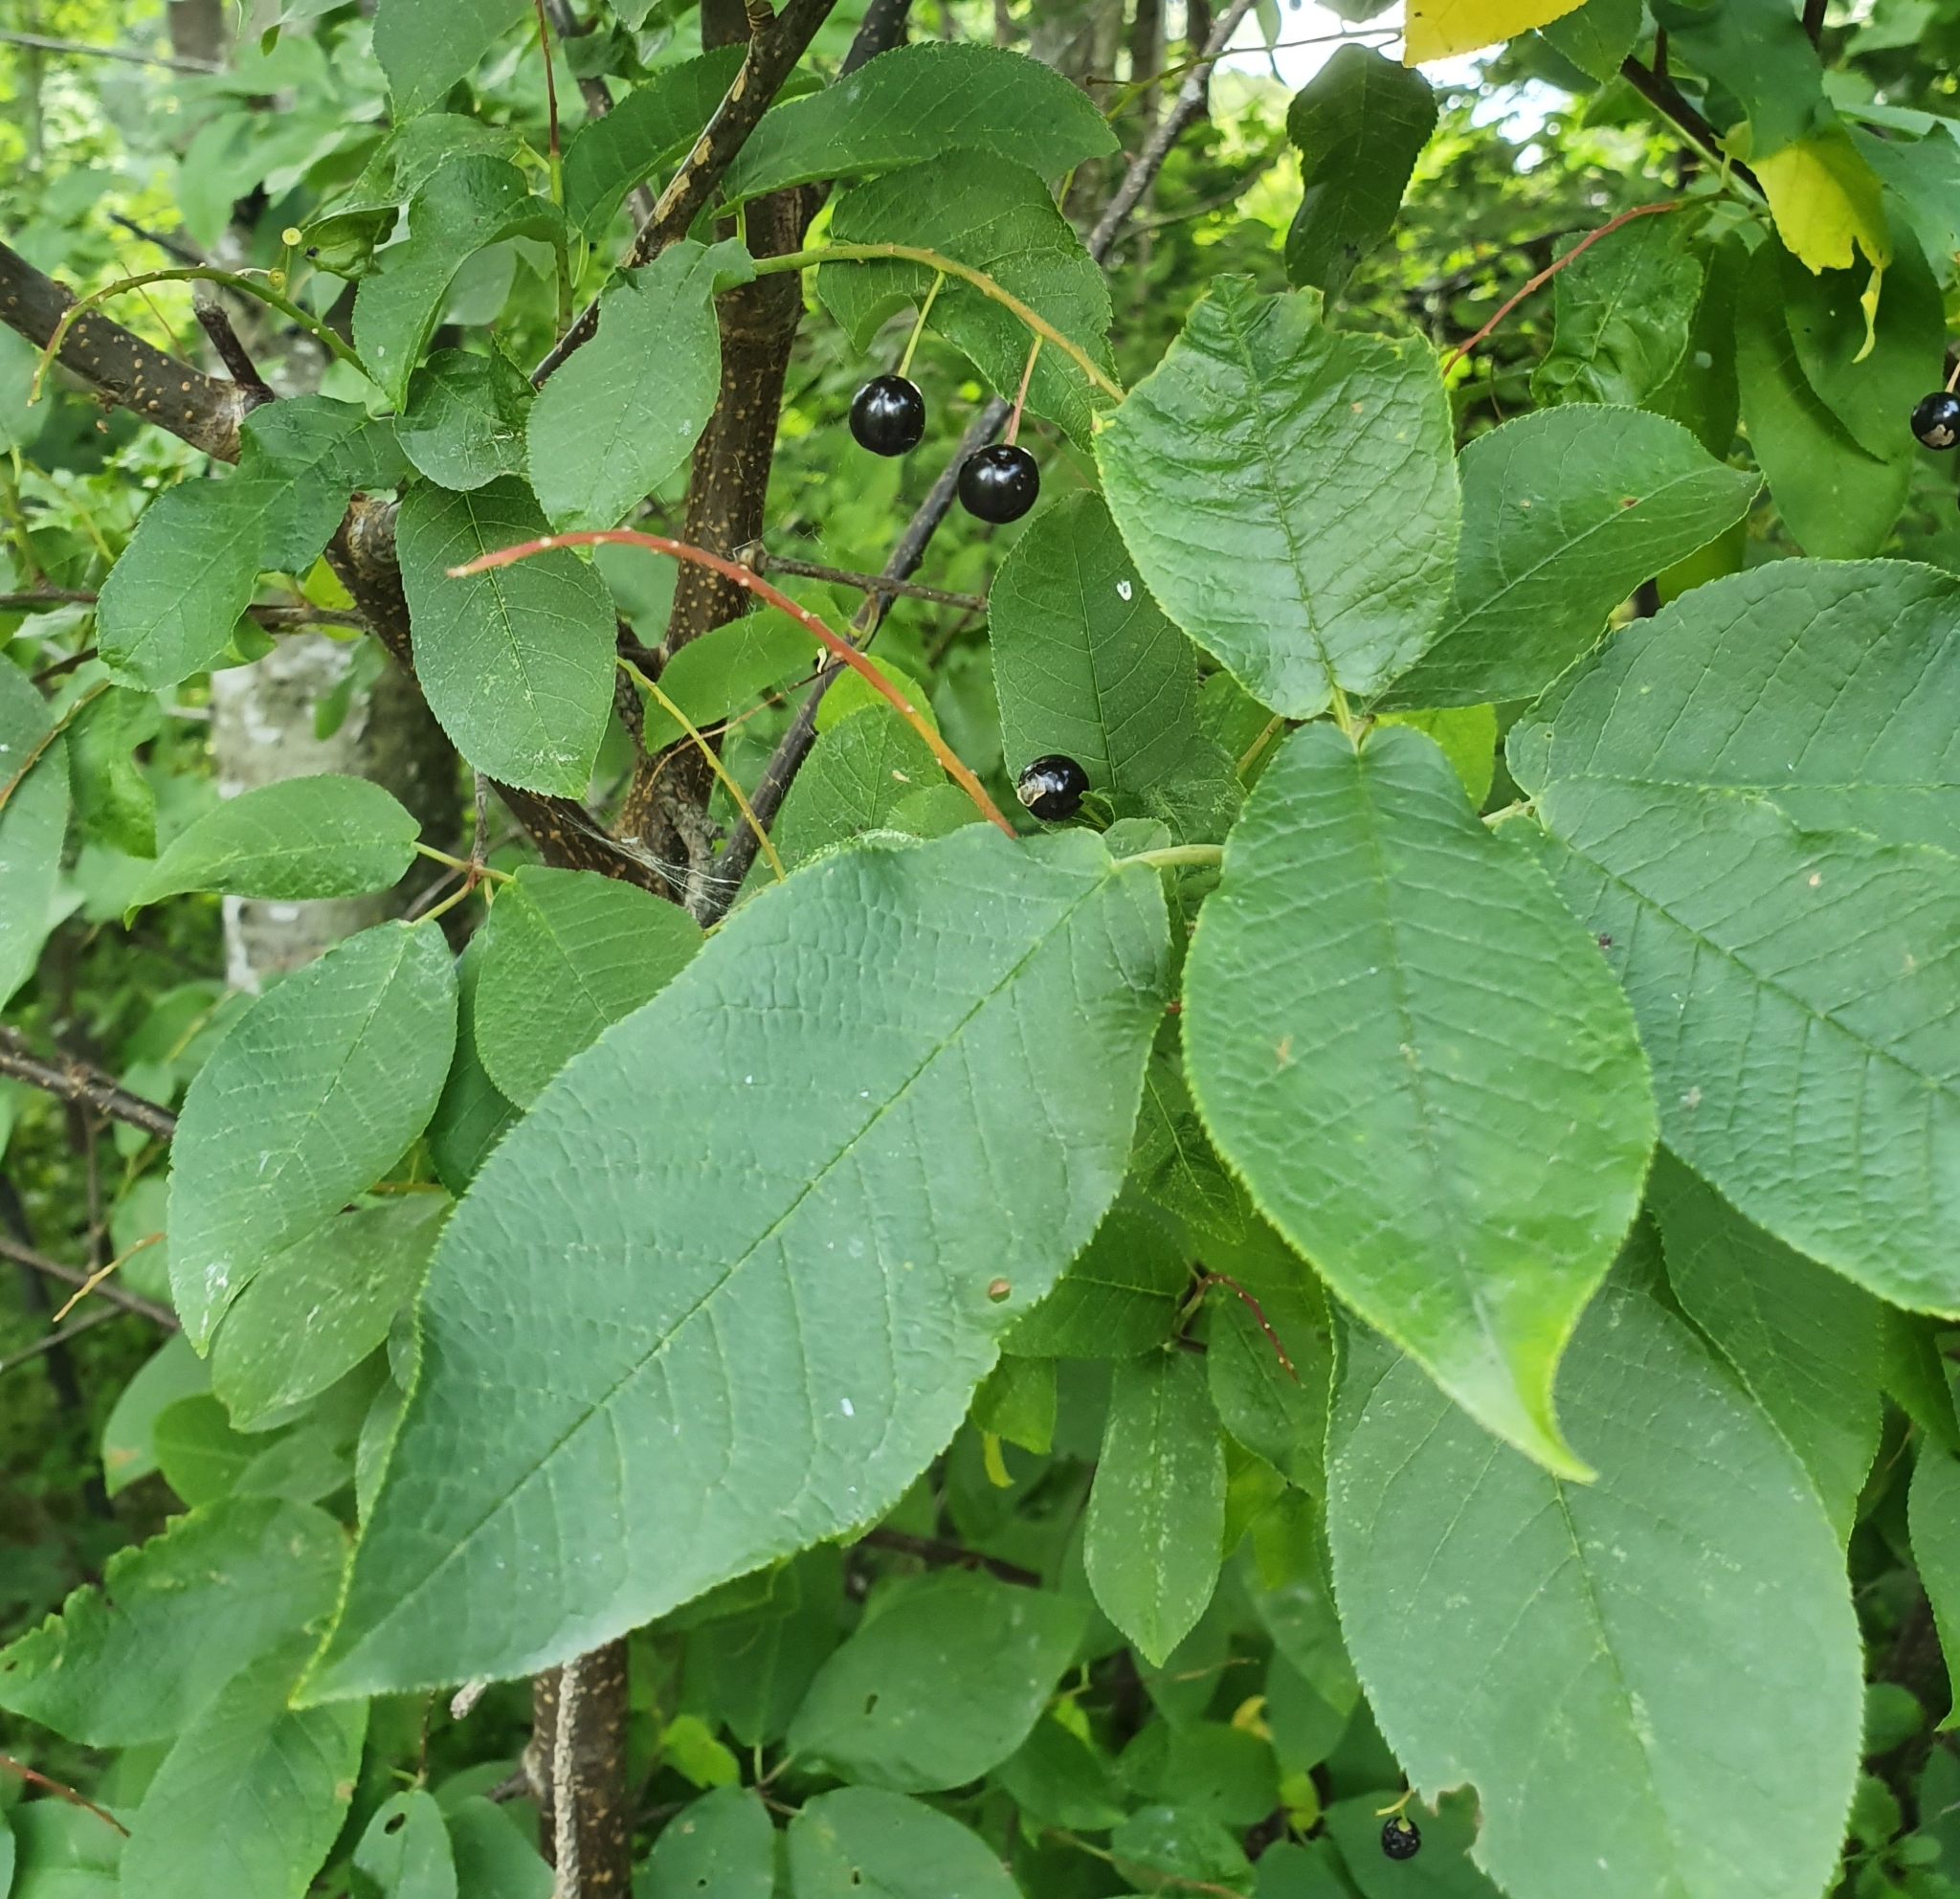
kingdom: Plantae
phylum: Tracheophyta
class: Magnoliopsida
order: Rosales
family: Rosaceae
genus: Prunus
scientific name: Prunus padus
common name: Bird cherry
